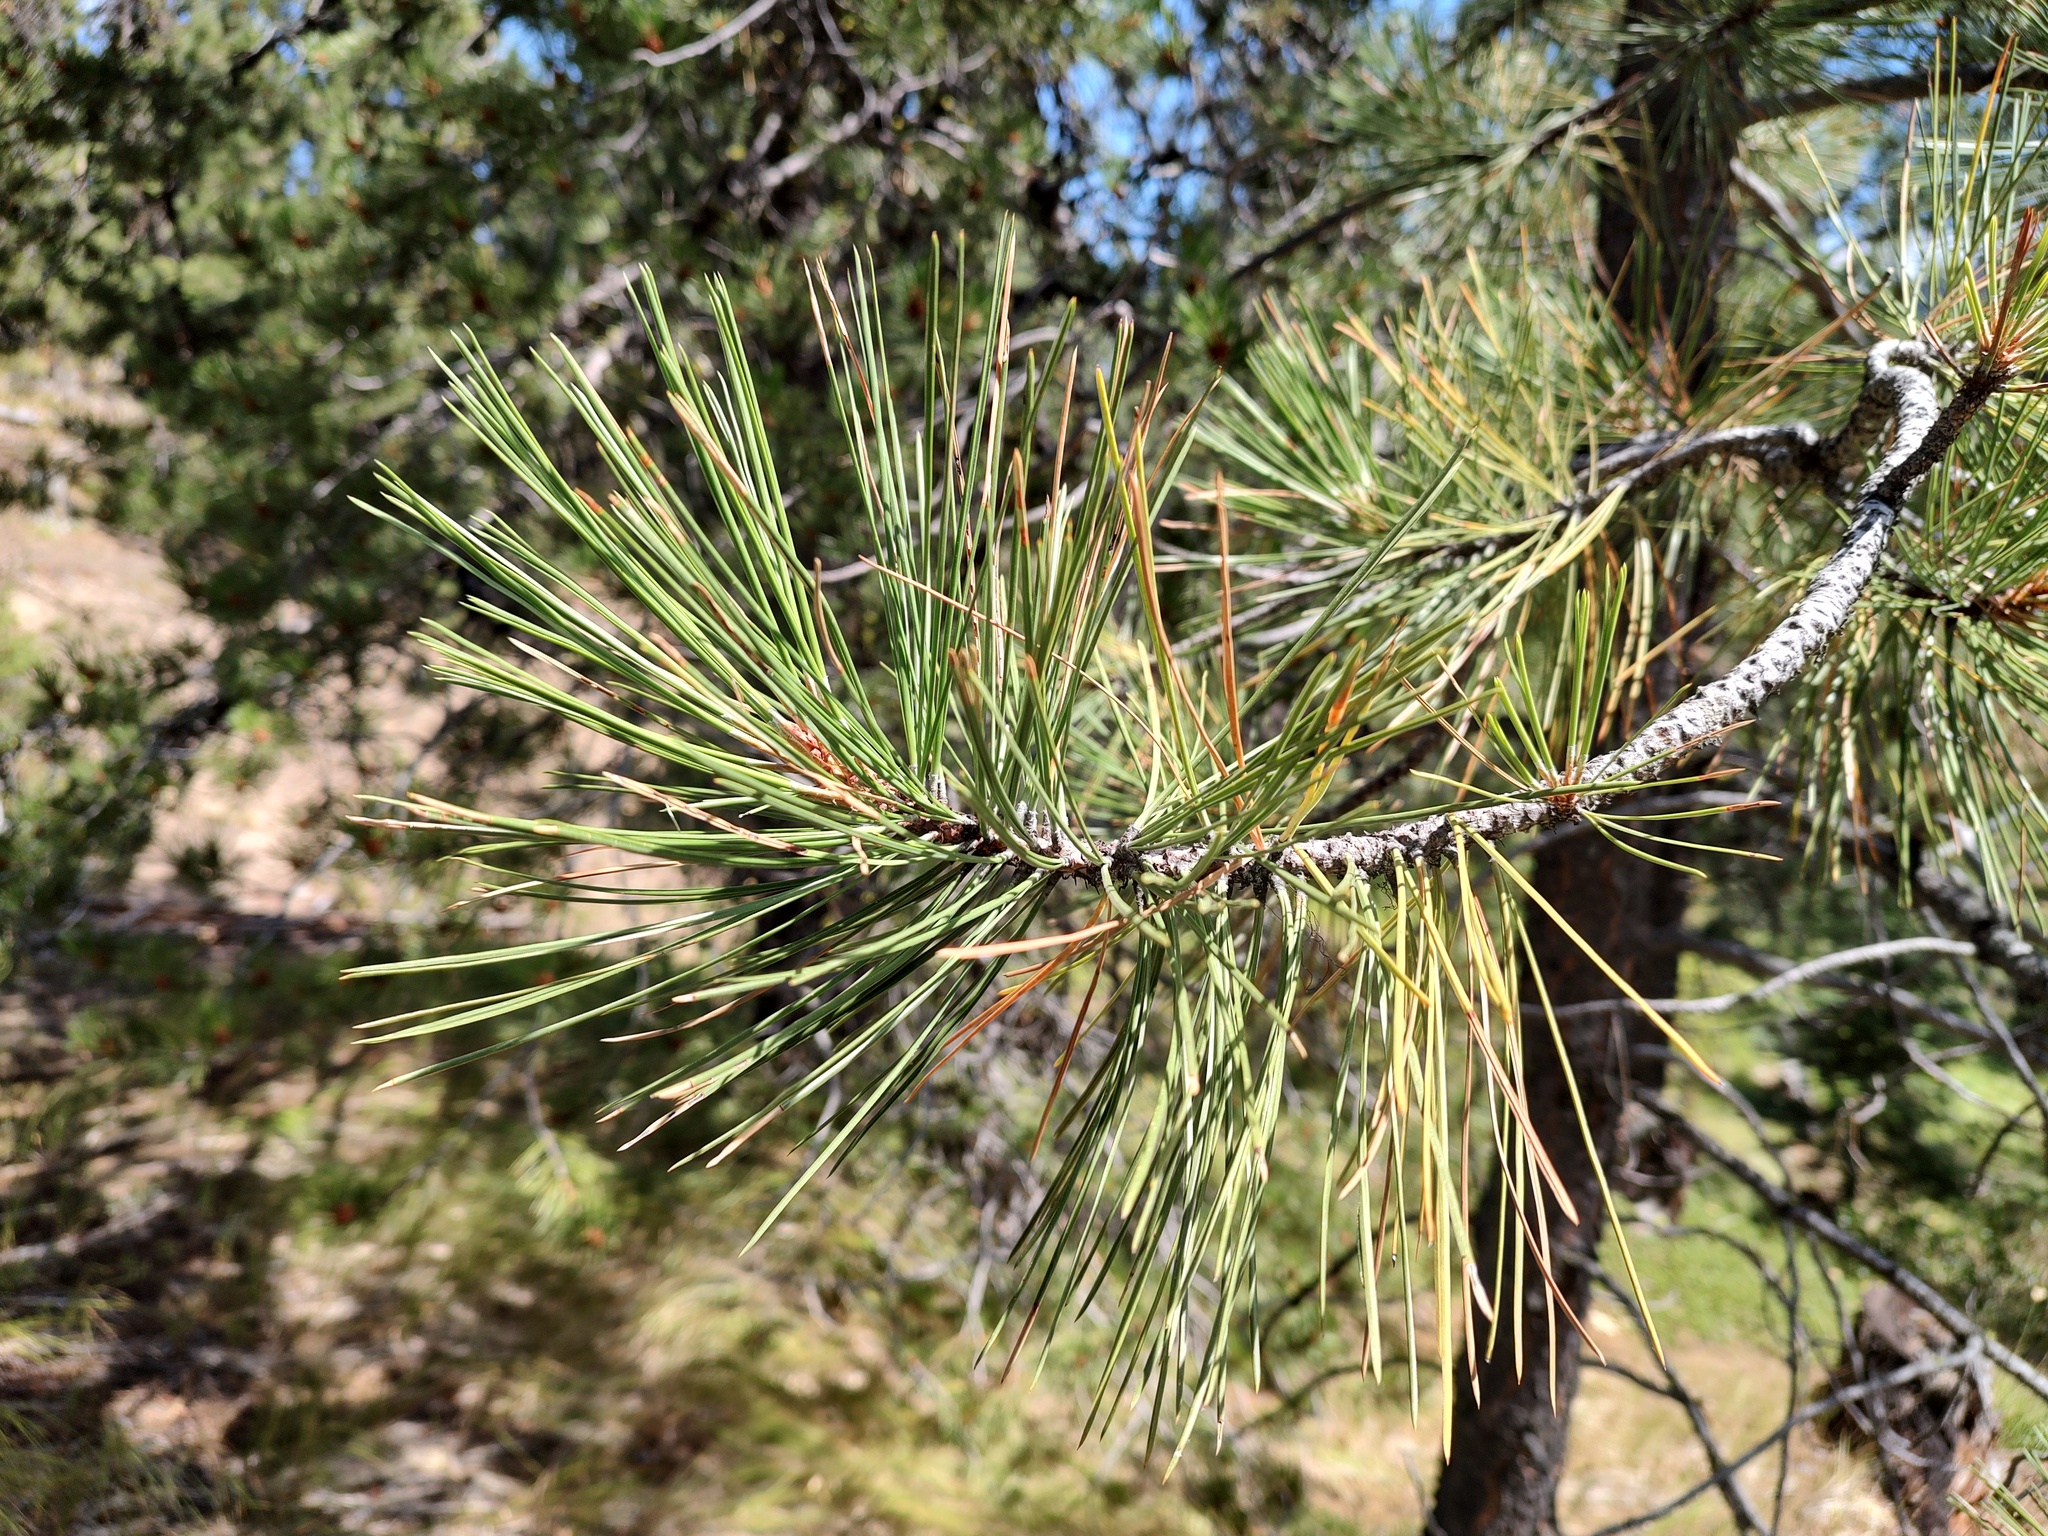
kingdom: Plantae
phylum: Tracheophyta
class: Pinopsida
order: Pinales
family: Pinaceae
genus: Pinus
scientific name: Pinus ponderosa
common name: Western yellow-pine
